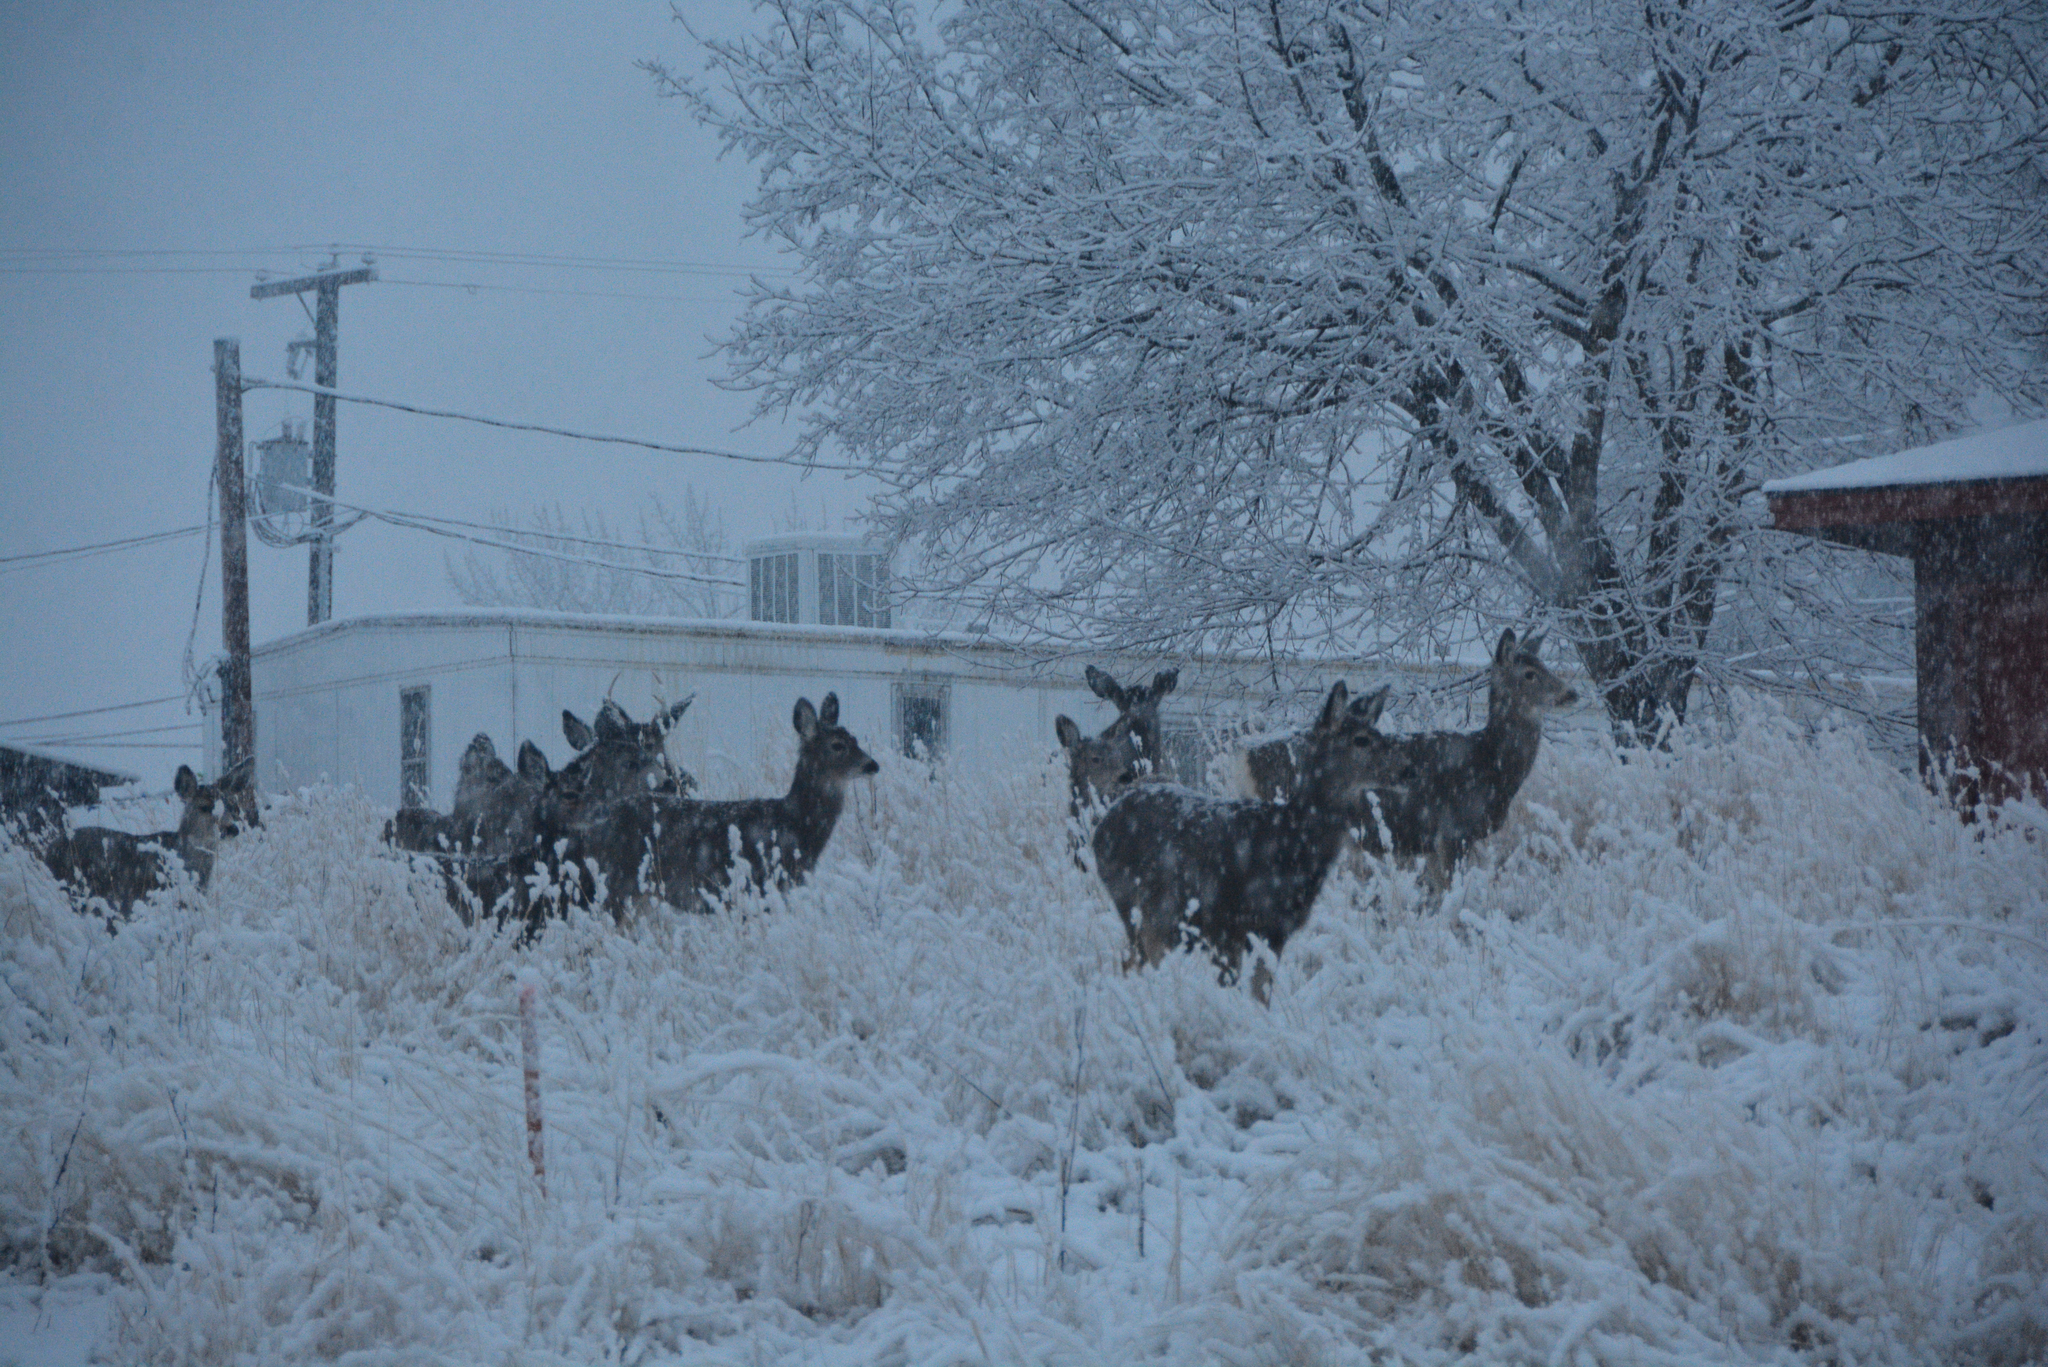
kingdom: Animalia
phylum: Chordata
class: Mammalia
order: Artiodactyla
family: Cervidae
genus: Odocoileus
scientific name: Odocoileus hemionus
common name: Mule deer
